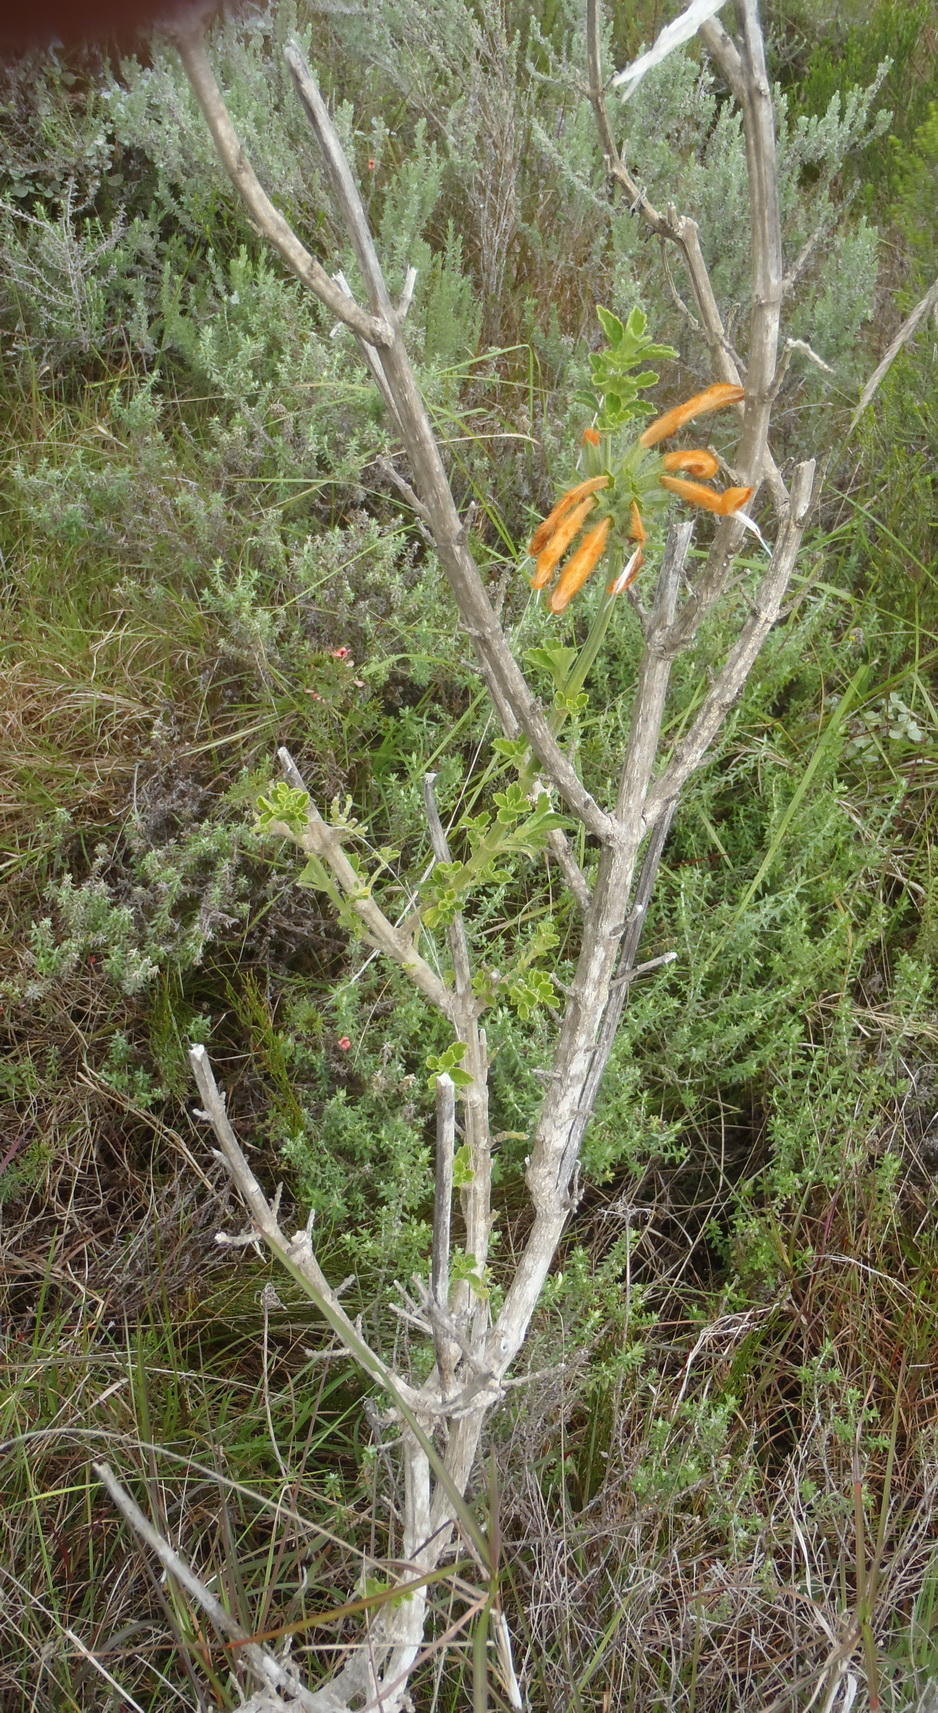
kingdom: Plantae
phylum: Tracheophyta
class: Magnoliopsida
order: Lamiales
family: Lamiaceae
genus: Leonotis
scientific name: Leonotis ocymifolia
